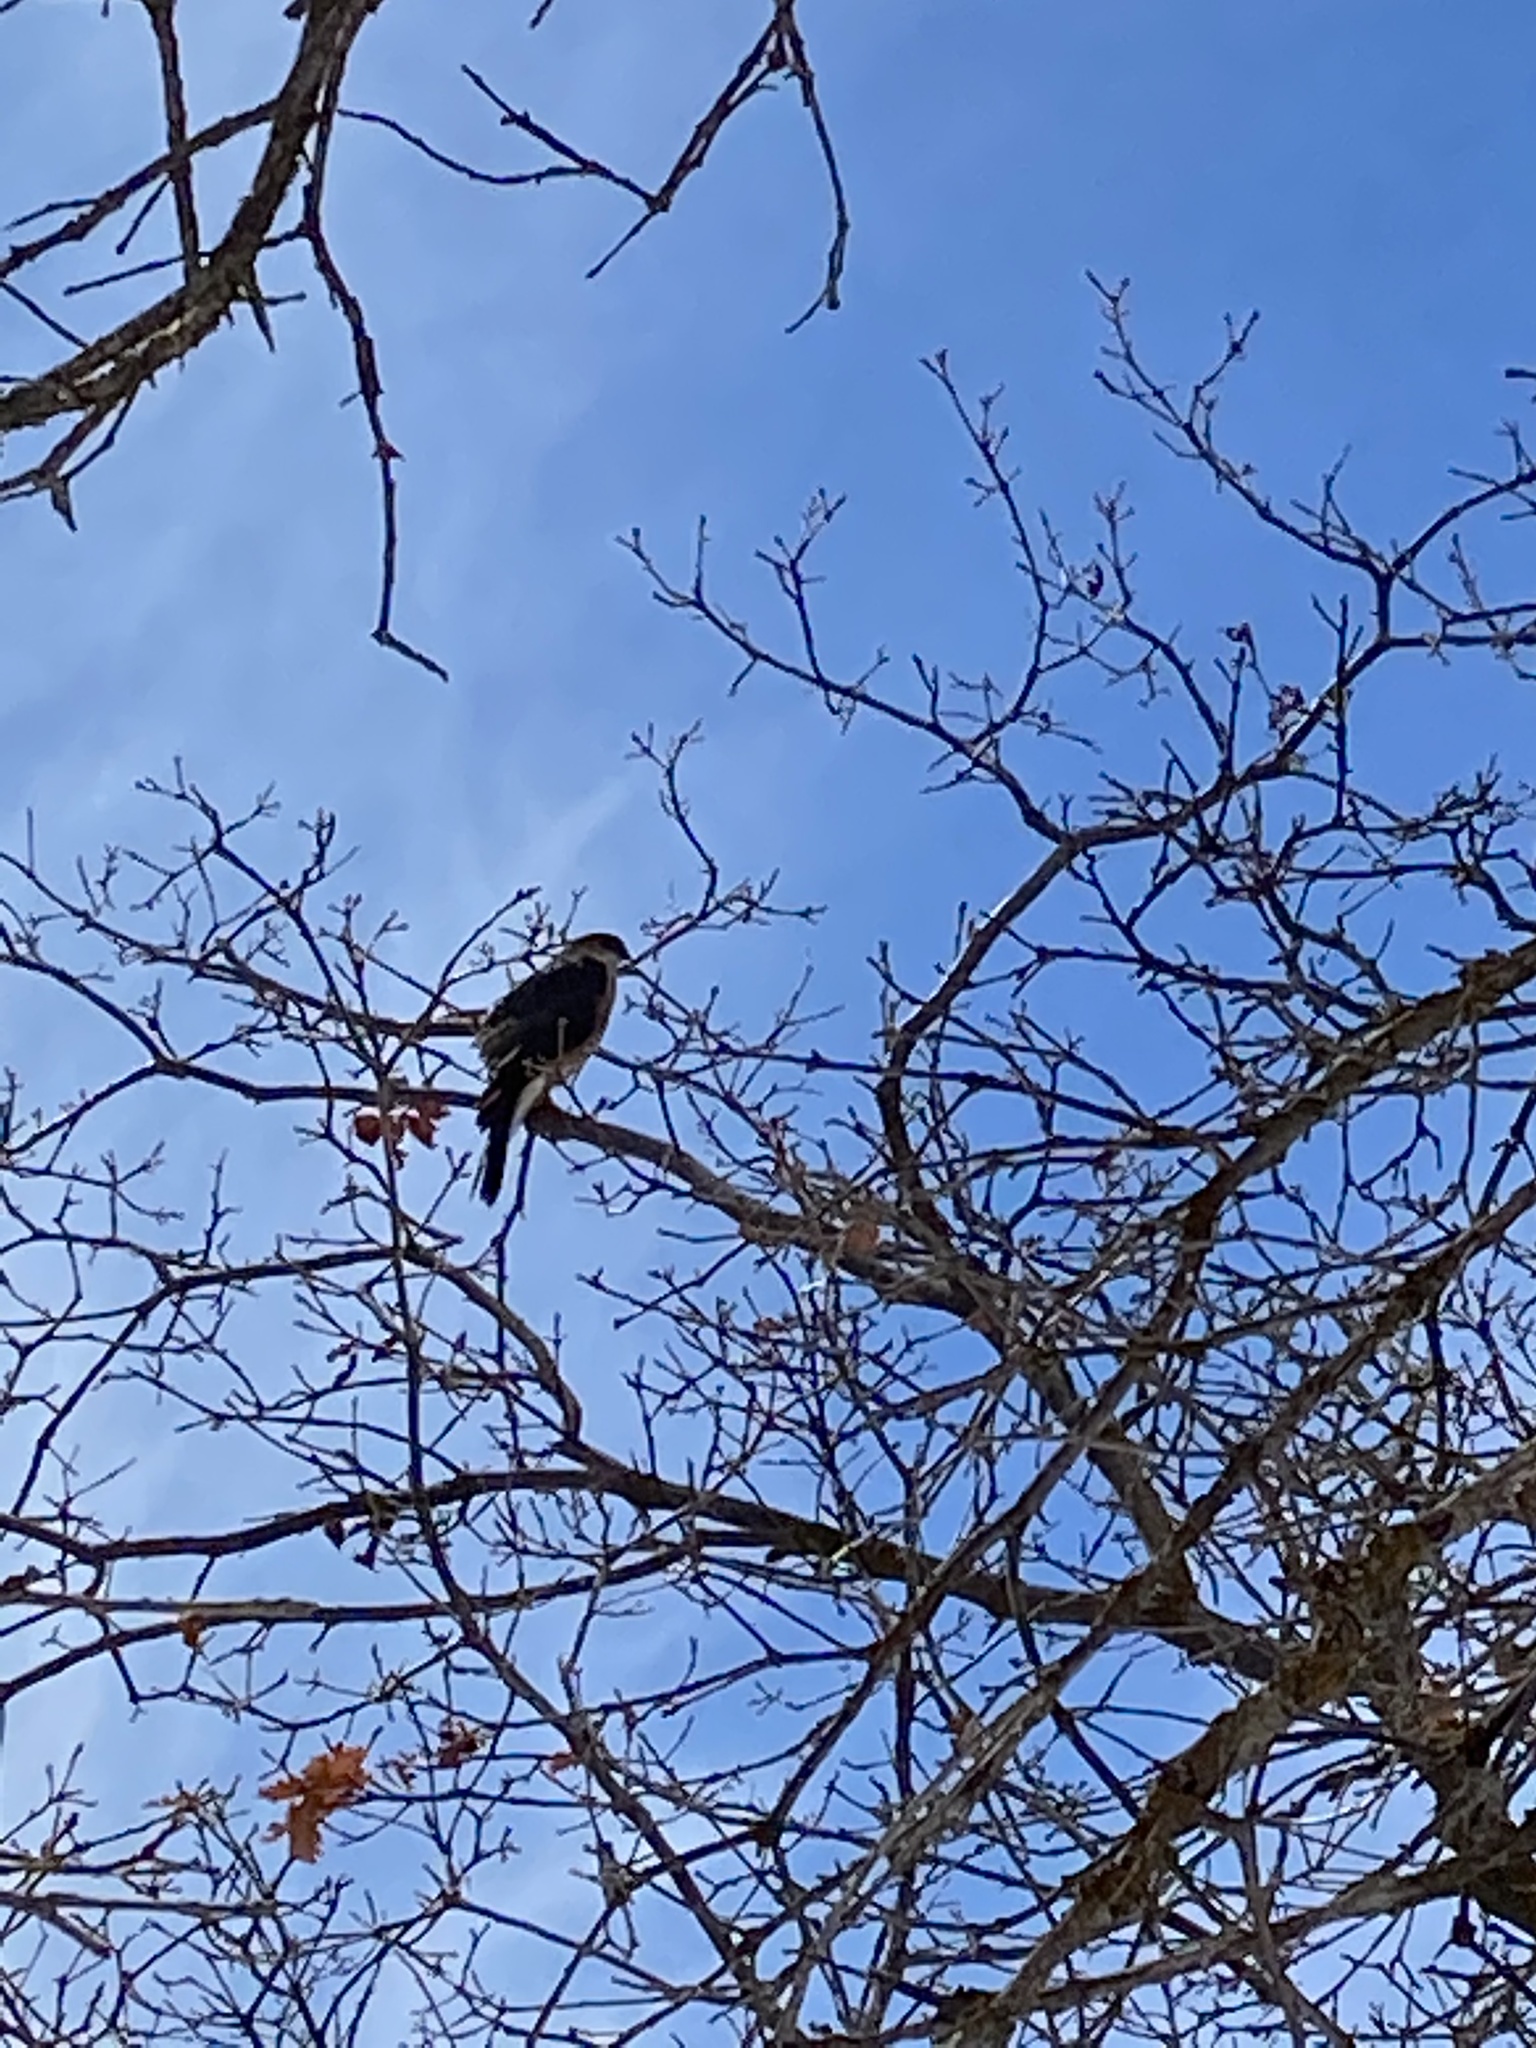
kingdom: Animalia
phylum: Chordata
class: Aves
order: Accipitriformes
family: Accipitridae
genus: Accipiter
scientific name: Accipiter cooperii
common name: Cooper's hawk
